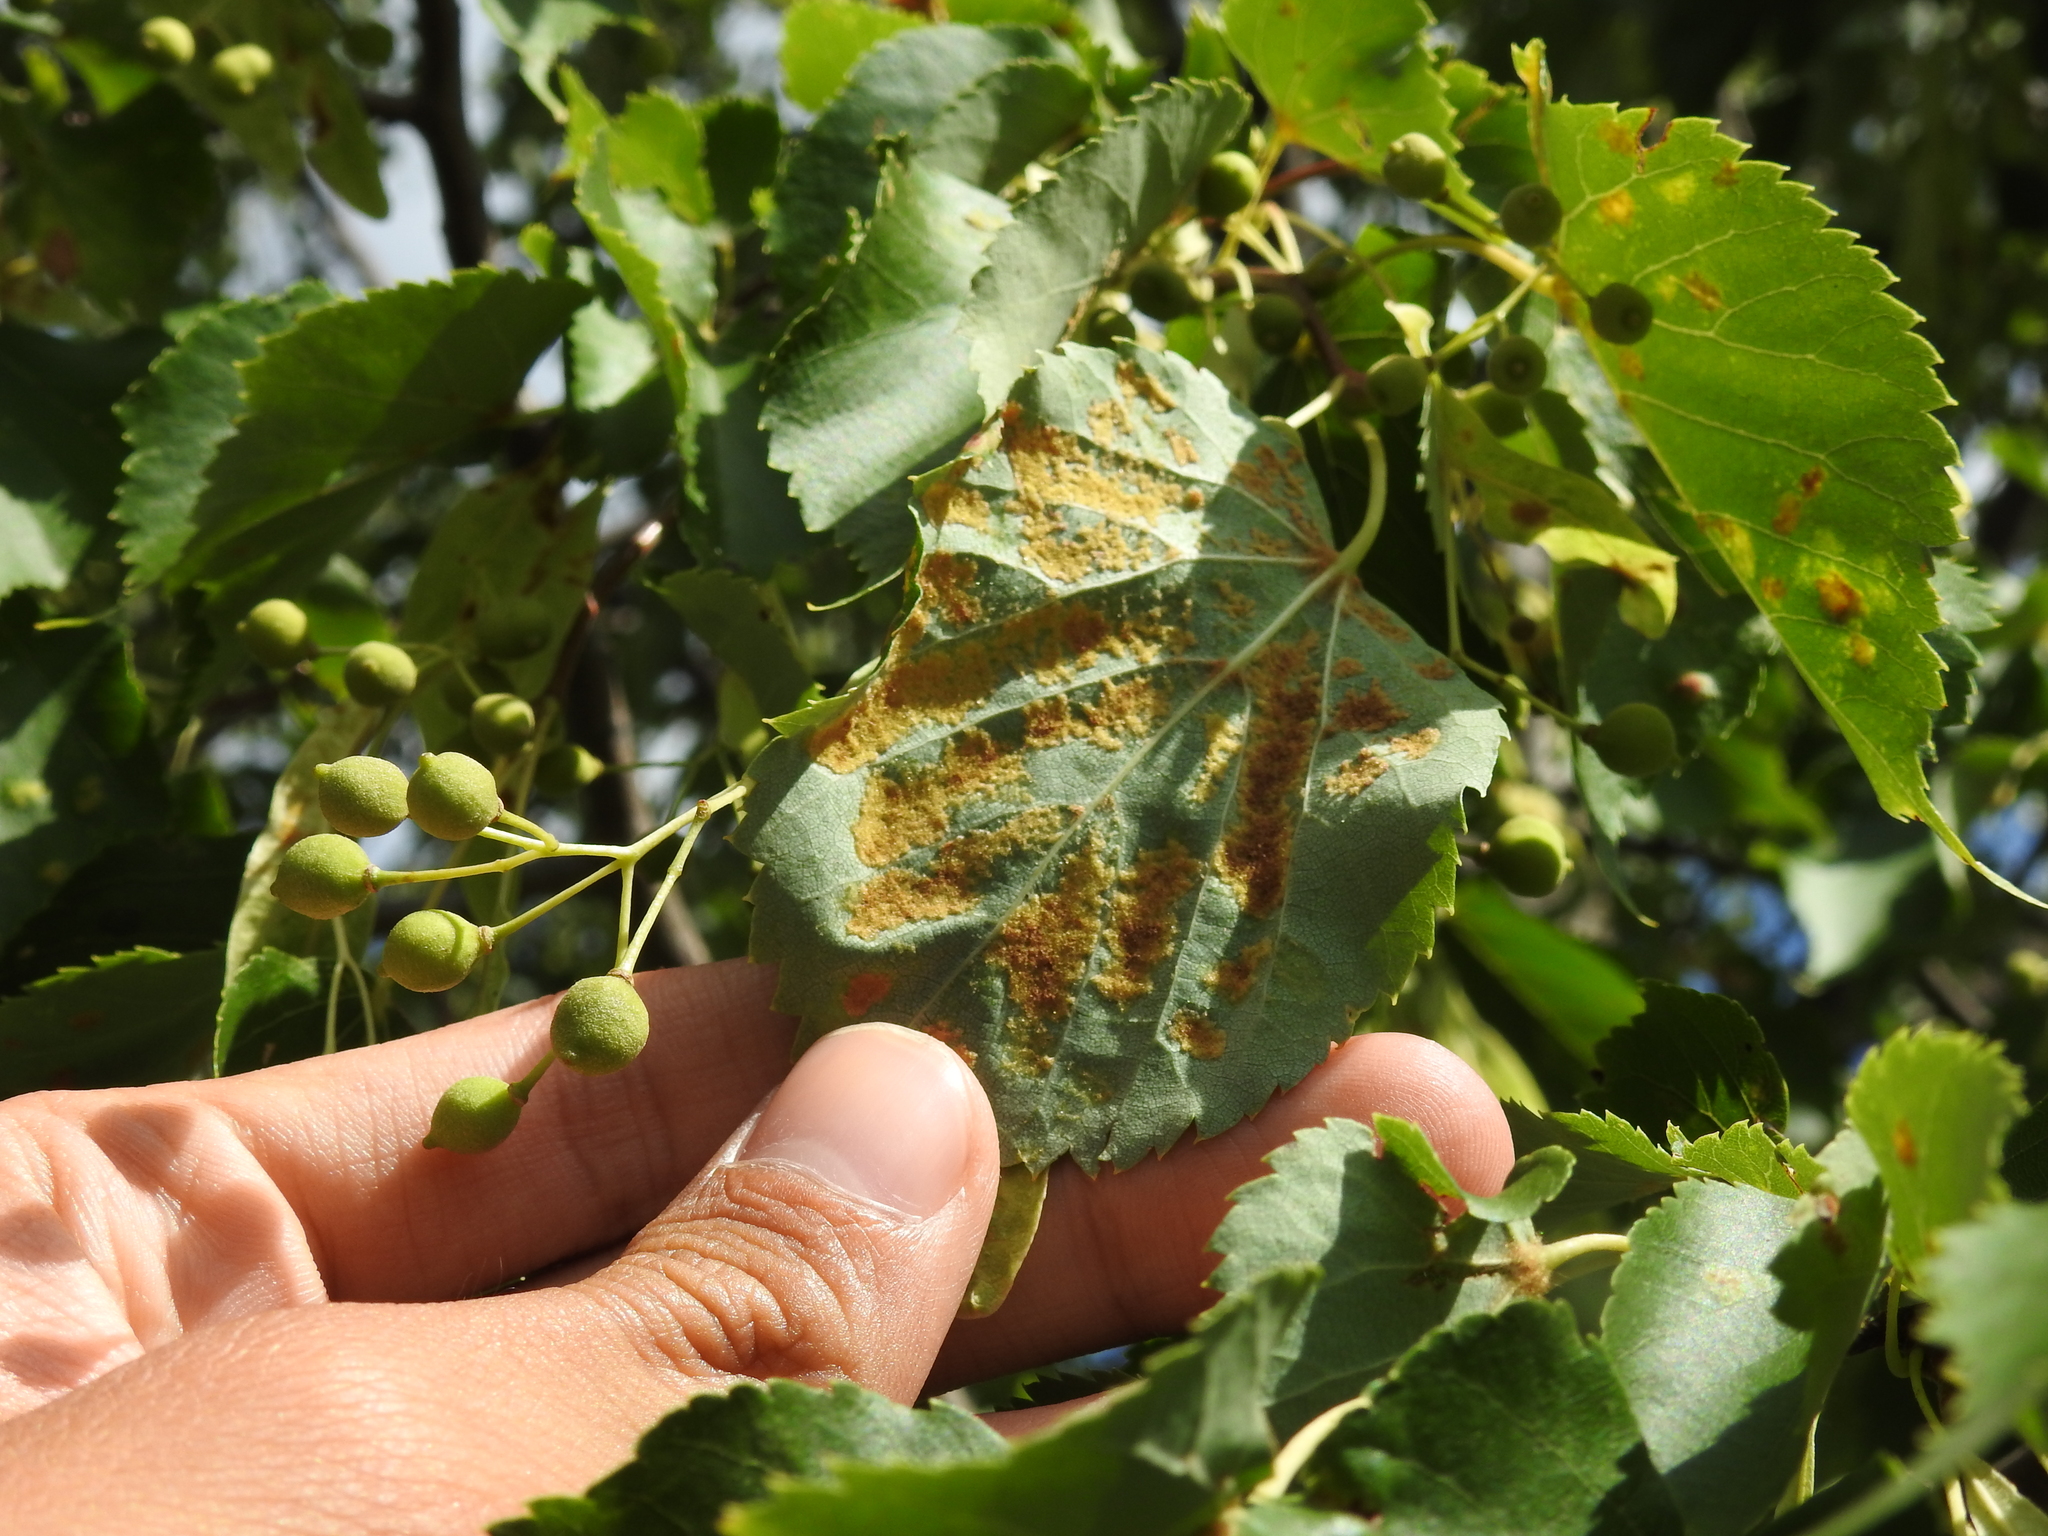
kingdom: Animalia
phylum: Arthropoda
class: Arachnida
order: Trombidiformes
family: Eriophyidae
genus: Eriophyes
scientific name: Eriophyes leiosoma
